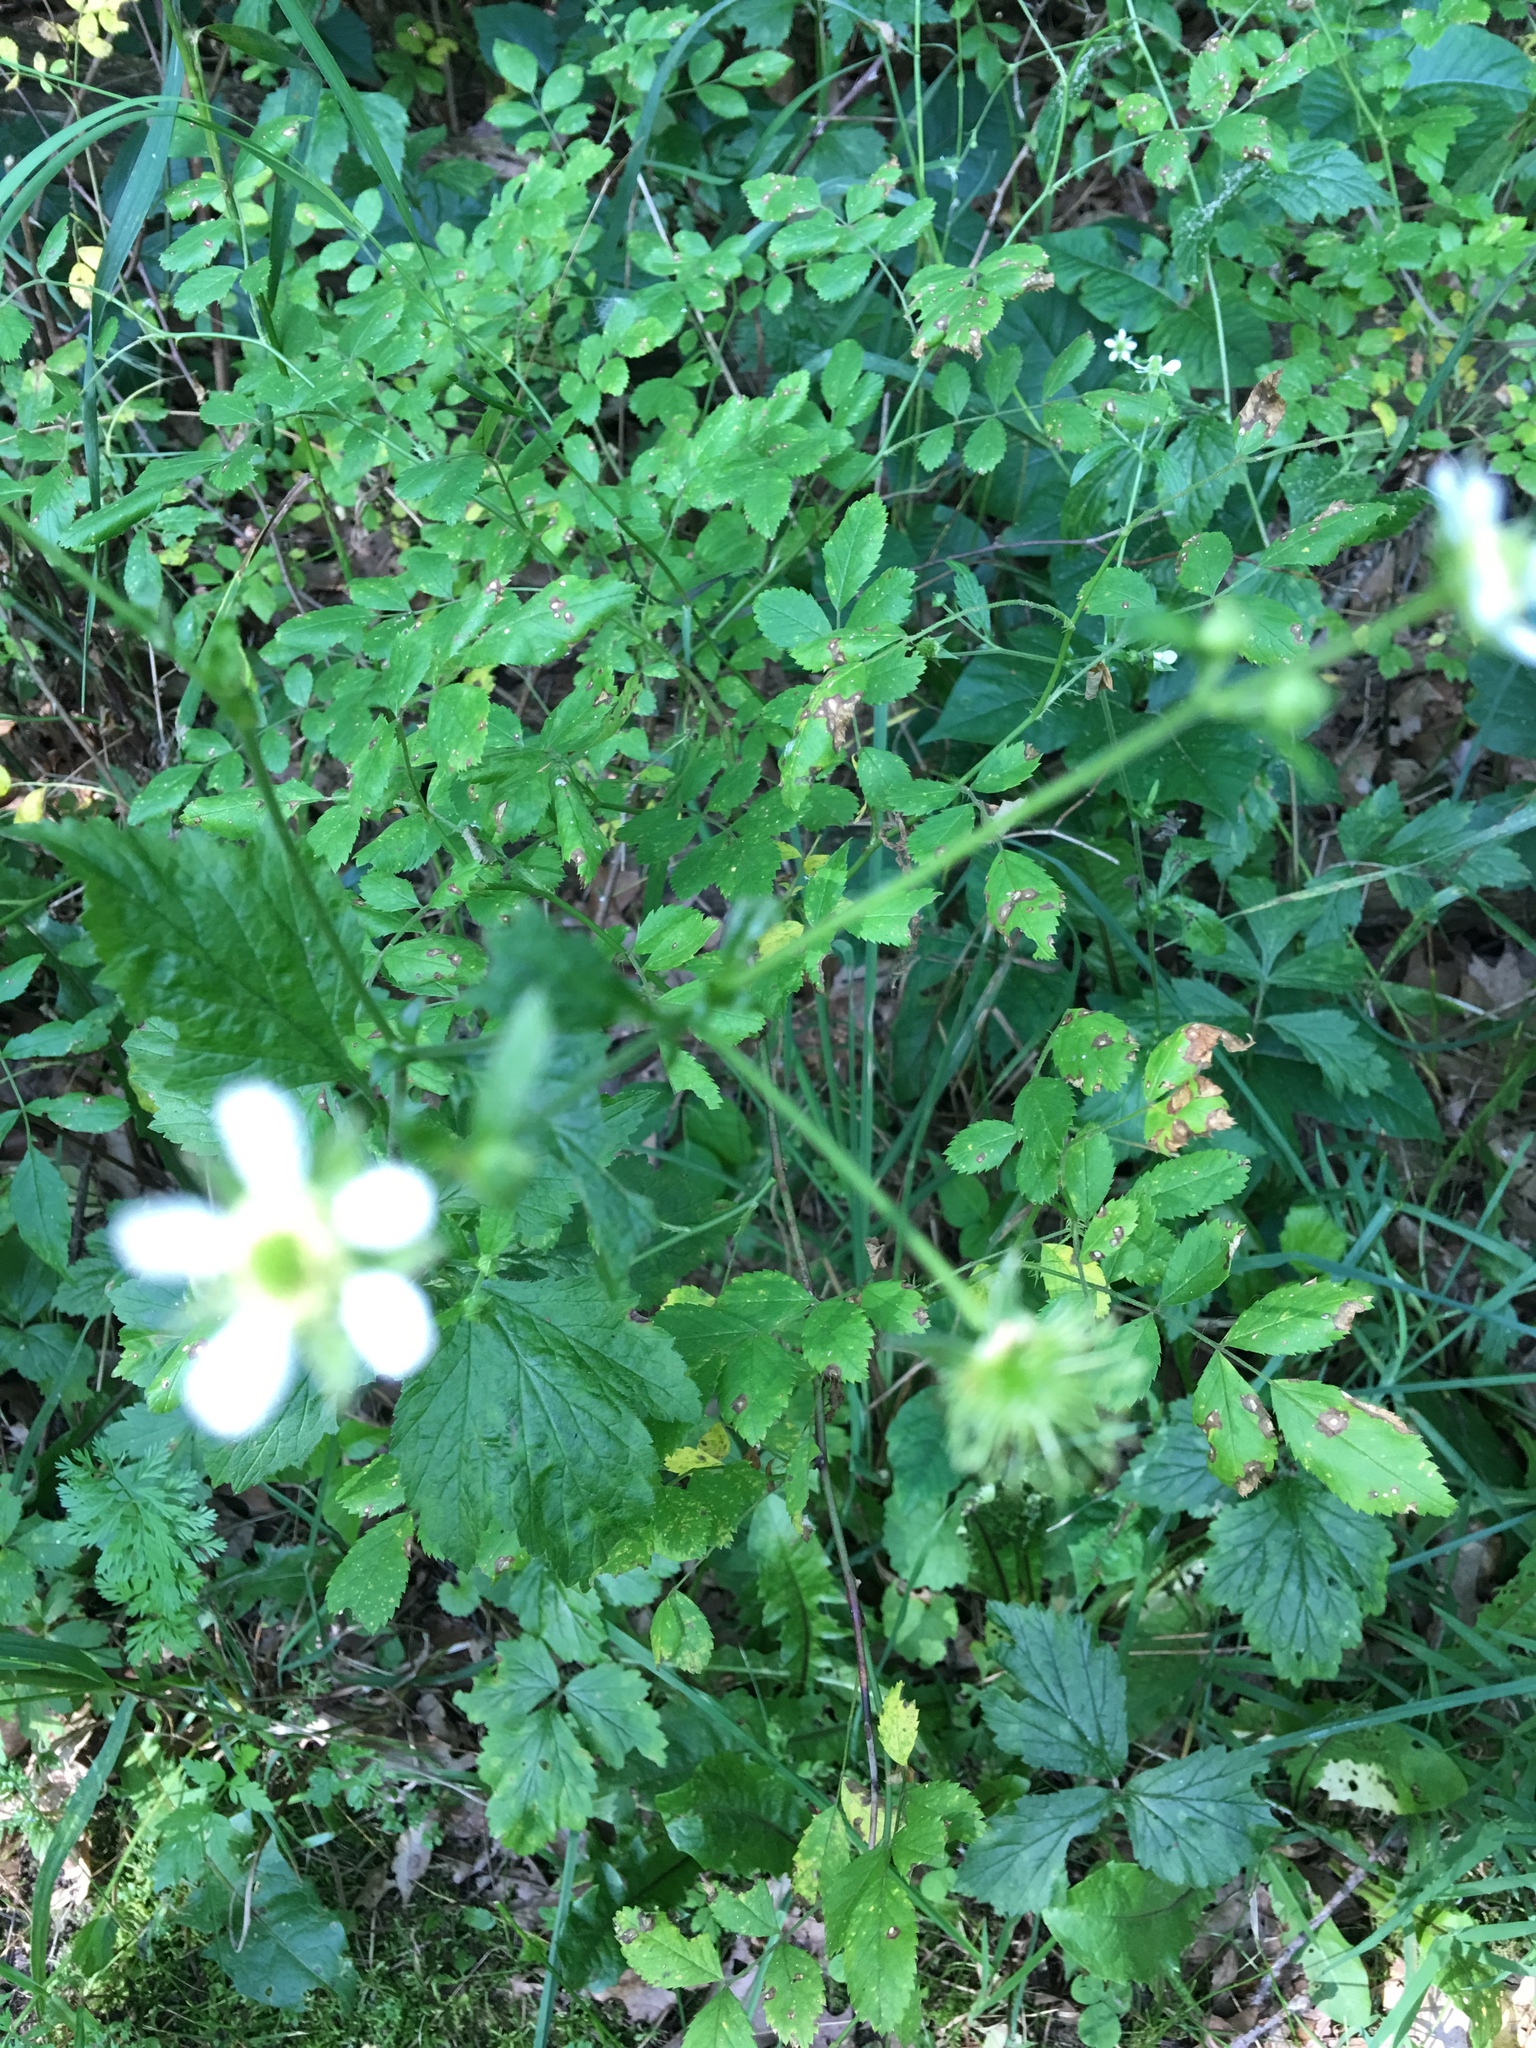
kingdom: Plantae
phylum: Tracheophyta
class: Magnoliopsida
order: Rosales
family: Rosaceae
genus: Geum
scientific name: Geum canadense
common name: White avens
